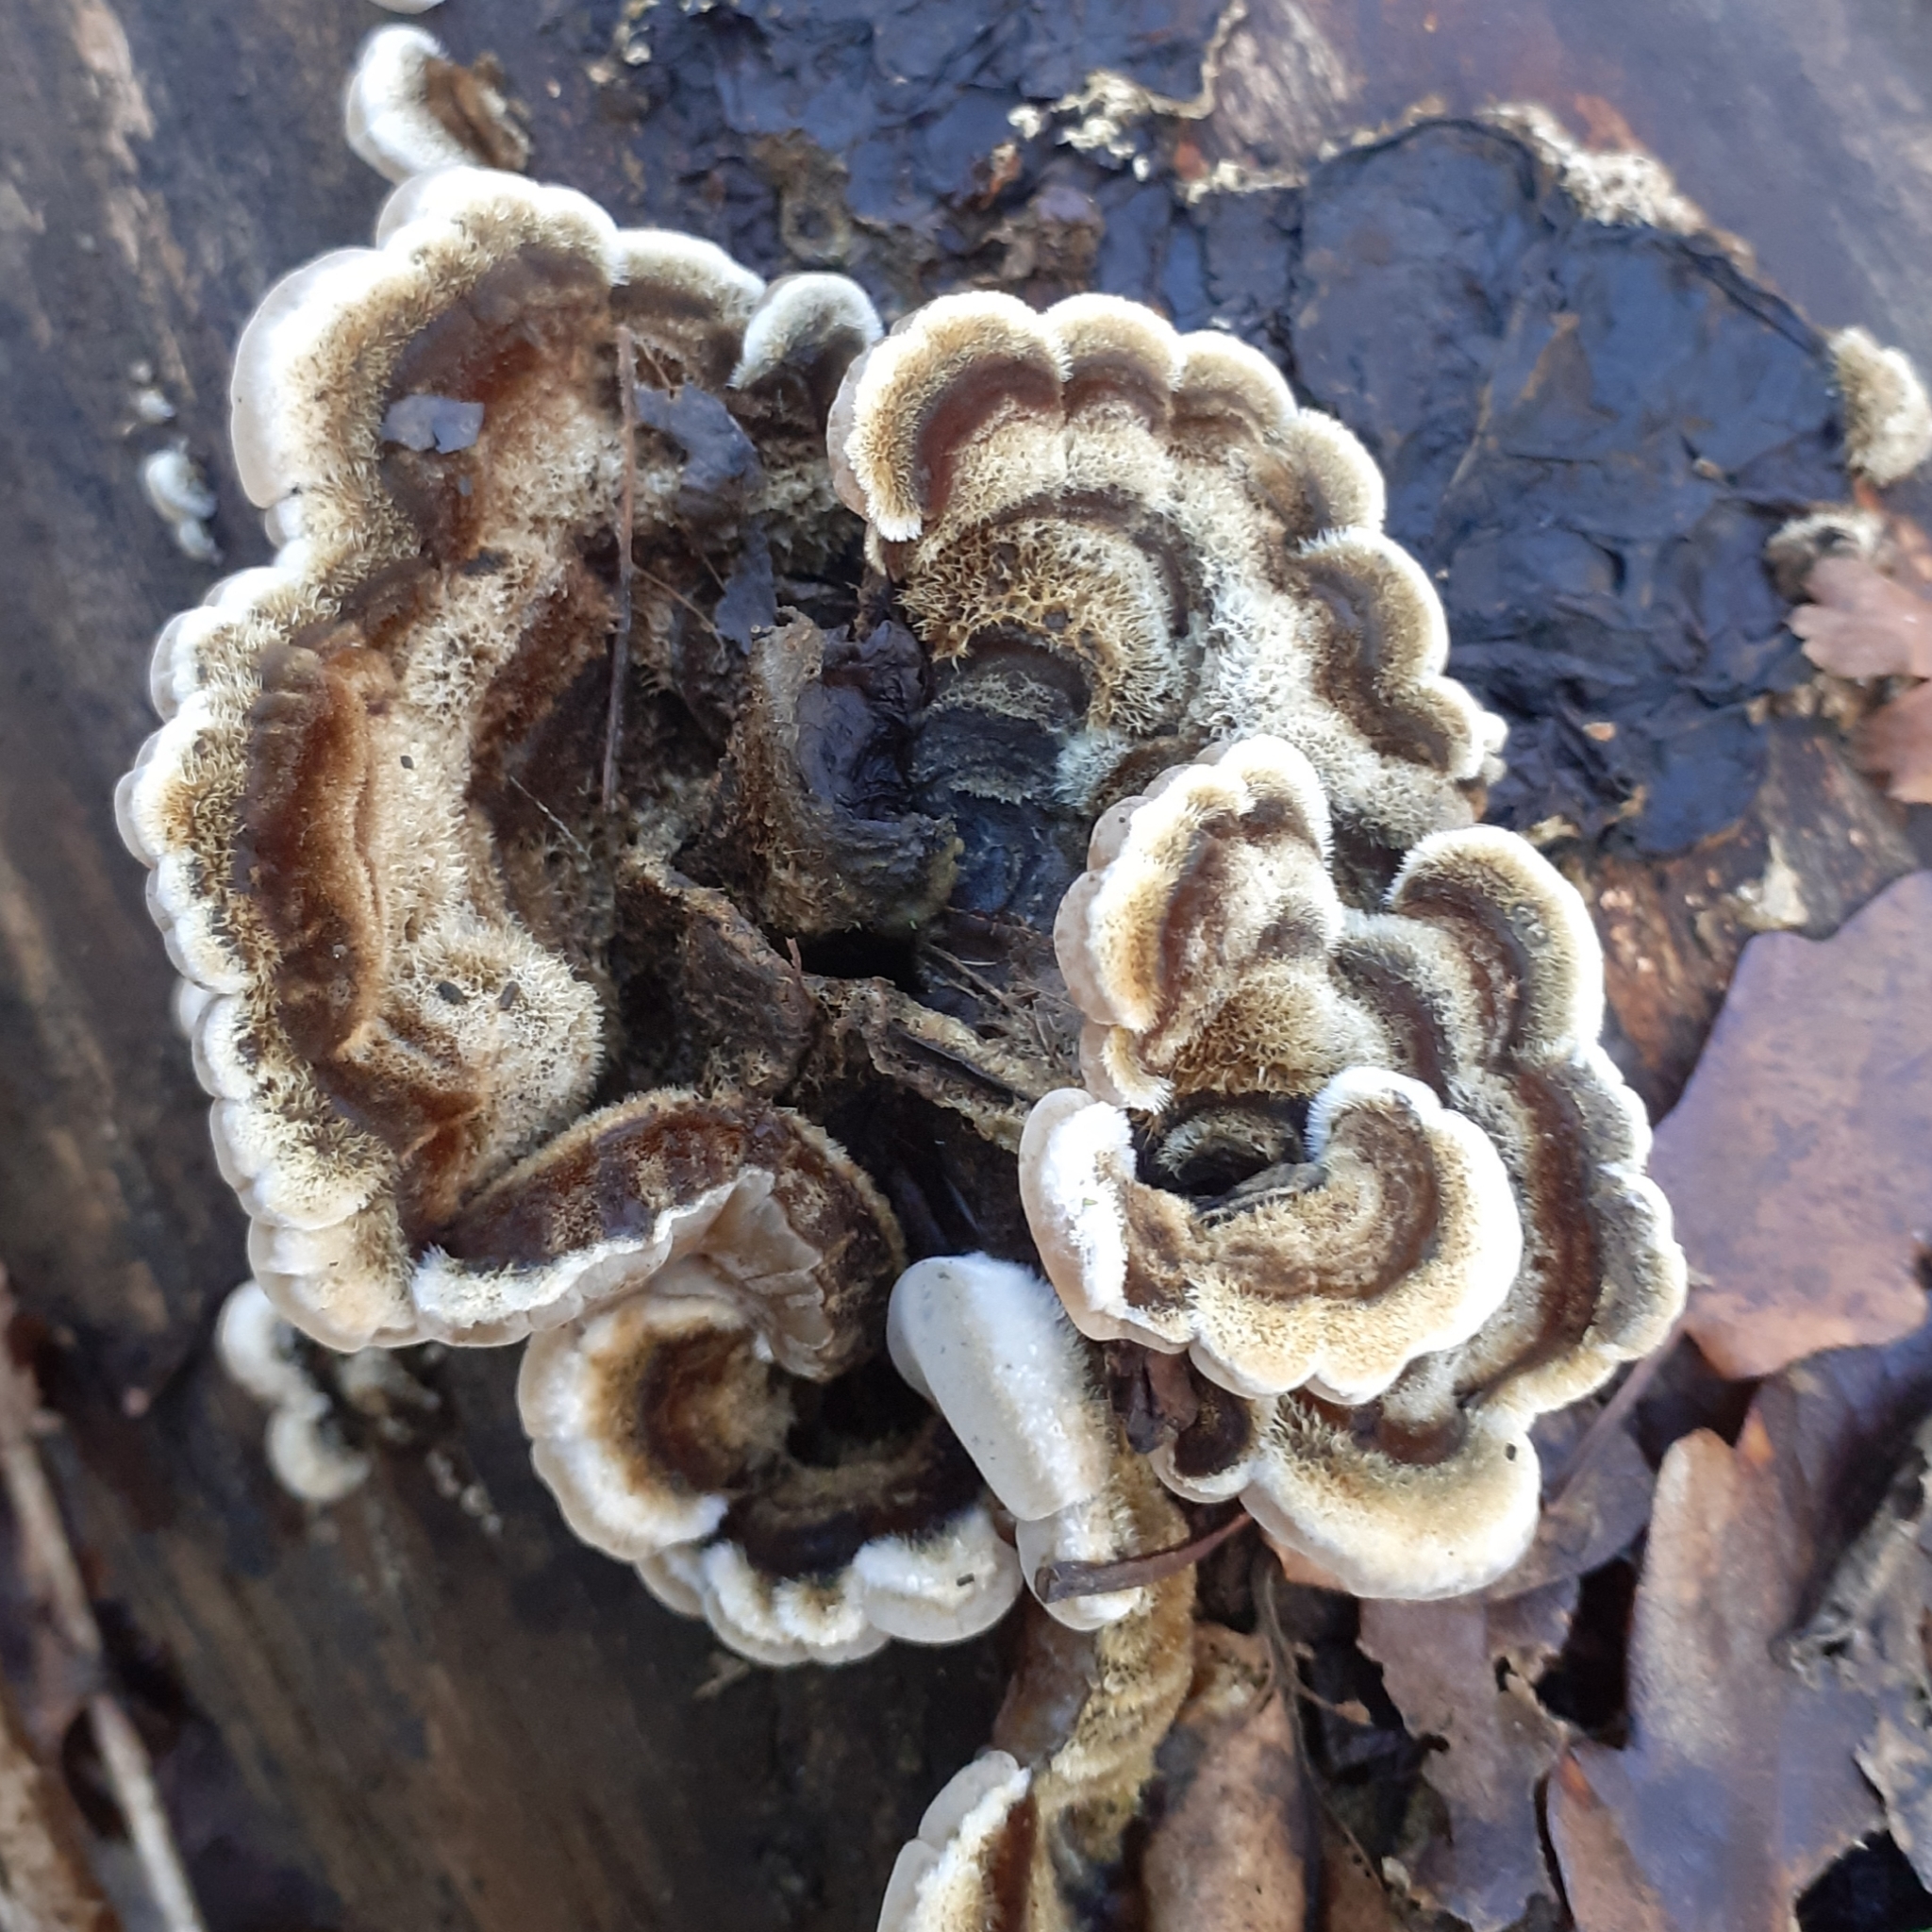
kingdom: Fungi
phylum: Basidiomycota
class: Agaricomycetes
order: Auriculariales
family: Auriculariaceae
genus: Auricularia
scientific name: Auricularia mesenterica
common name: Tripe fungus
